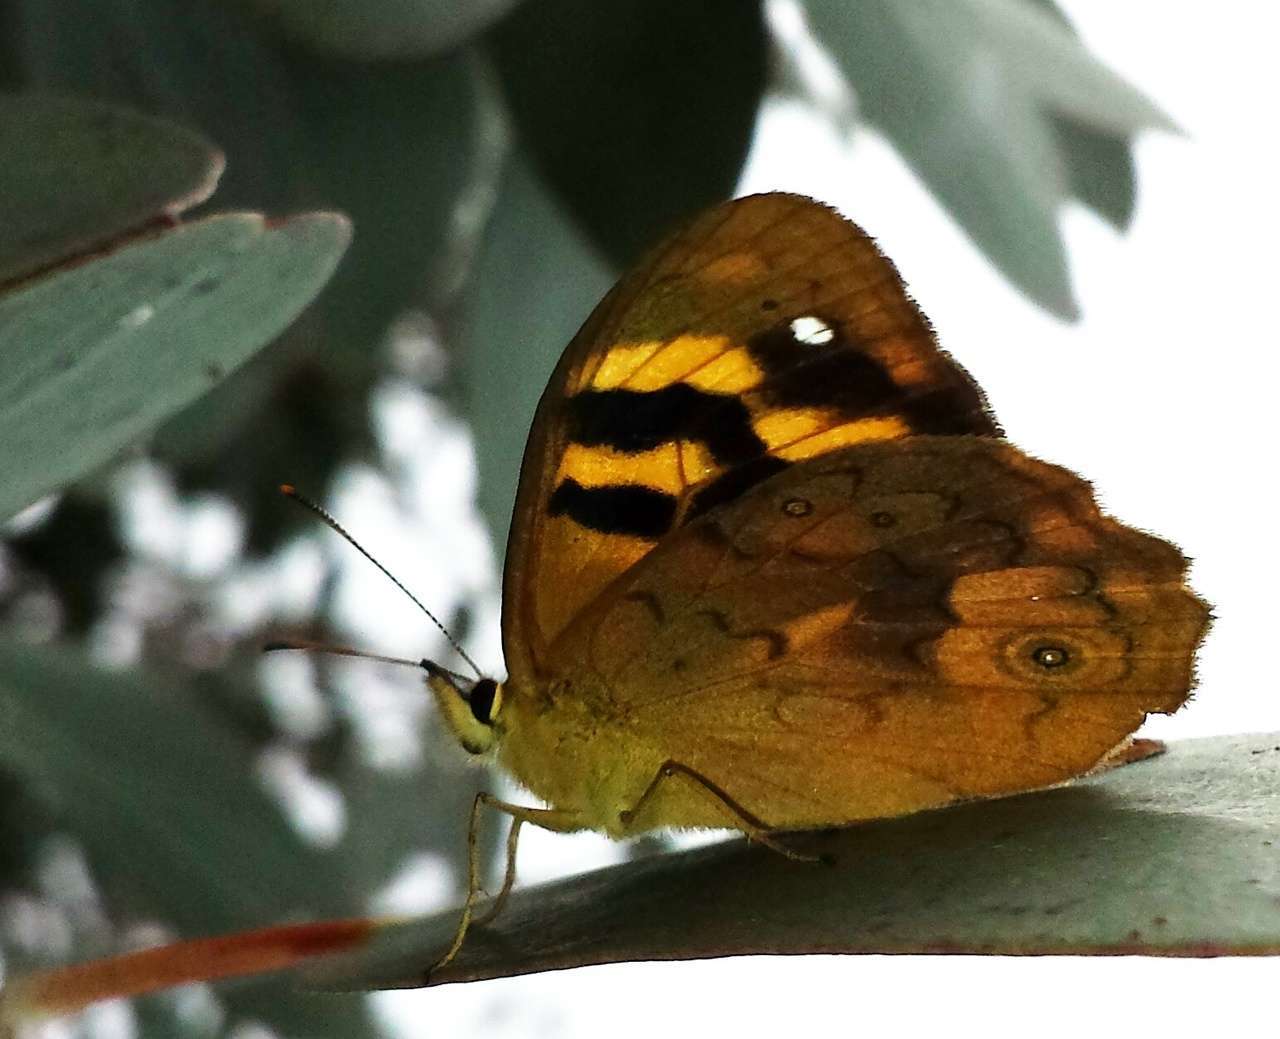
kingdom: Animalia
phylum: Arthropoda
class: Insecta
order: Lepidoptera
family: Nymphalidae
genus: Heteronympha
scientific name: Heteronympha solandri
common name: Solander's brown
